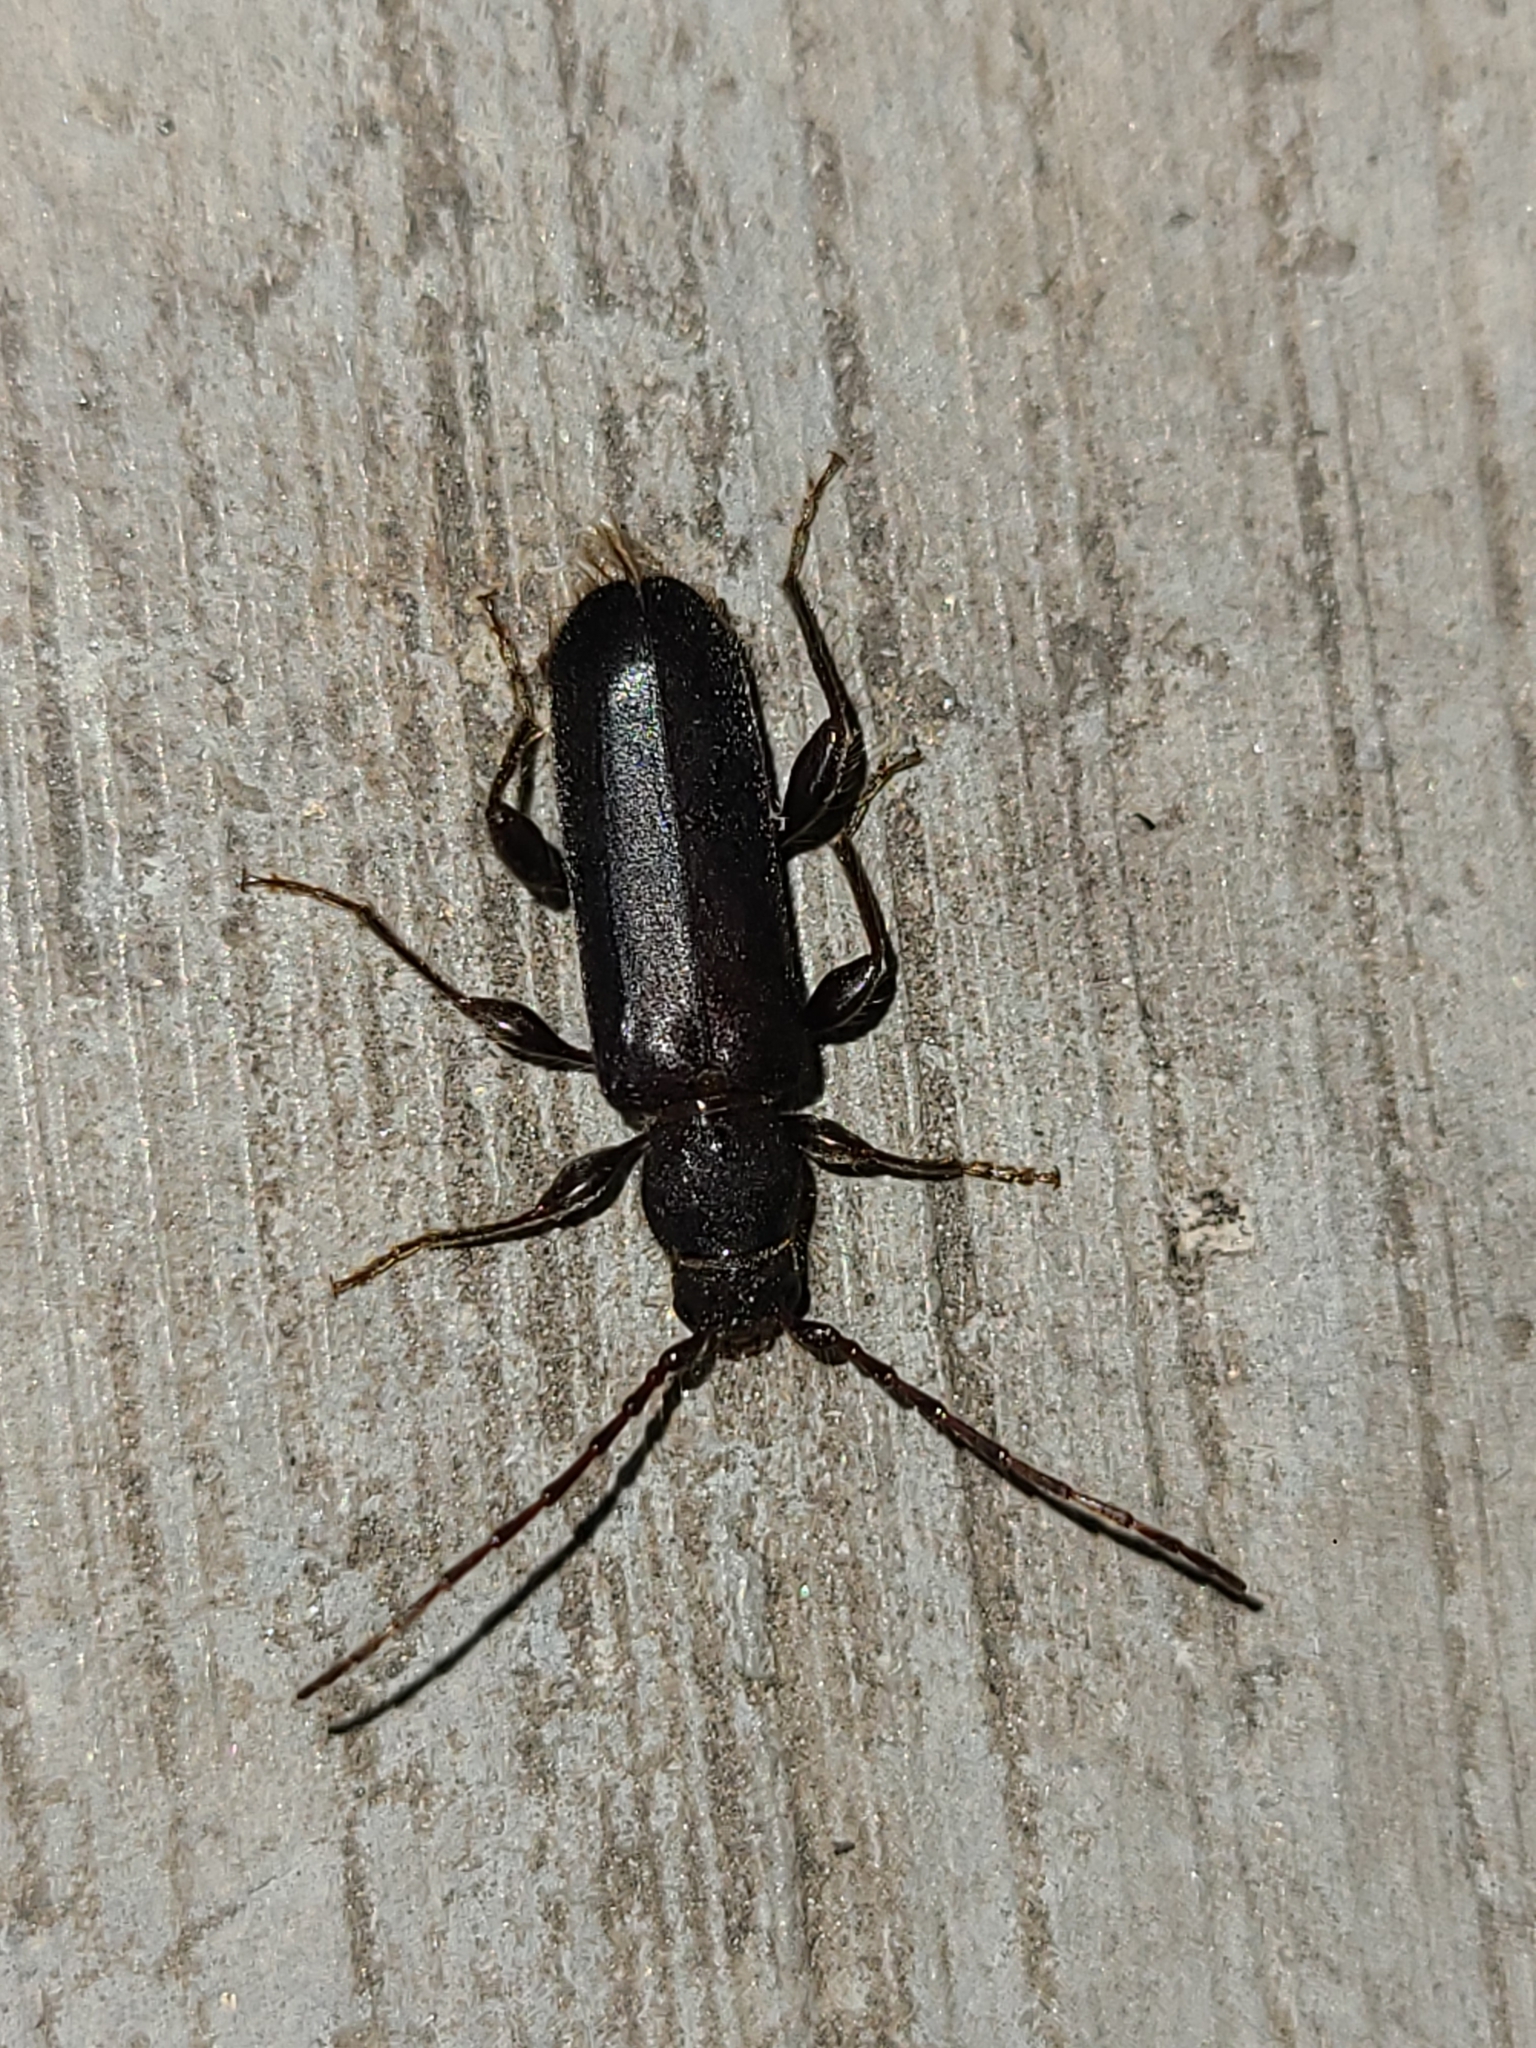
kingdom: Animalia
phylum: Arthropoda
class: Insecta
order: Coleoptera
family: Cerambycidae
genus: Phymatodes
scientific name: Phymatodes grandis
